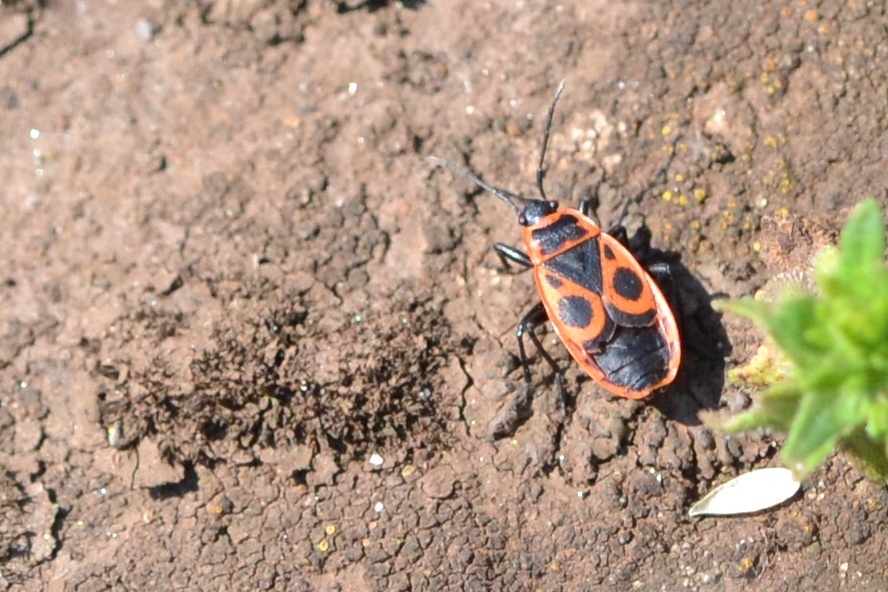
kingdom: Animalia
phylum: Arthropoda
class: Insecta
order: Hemiptera
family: Pyrrhocoridae
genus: Pyrrhocoris
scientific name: Pyrrhocoris apterus
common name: Firebug
